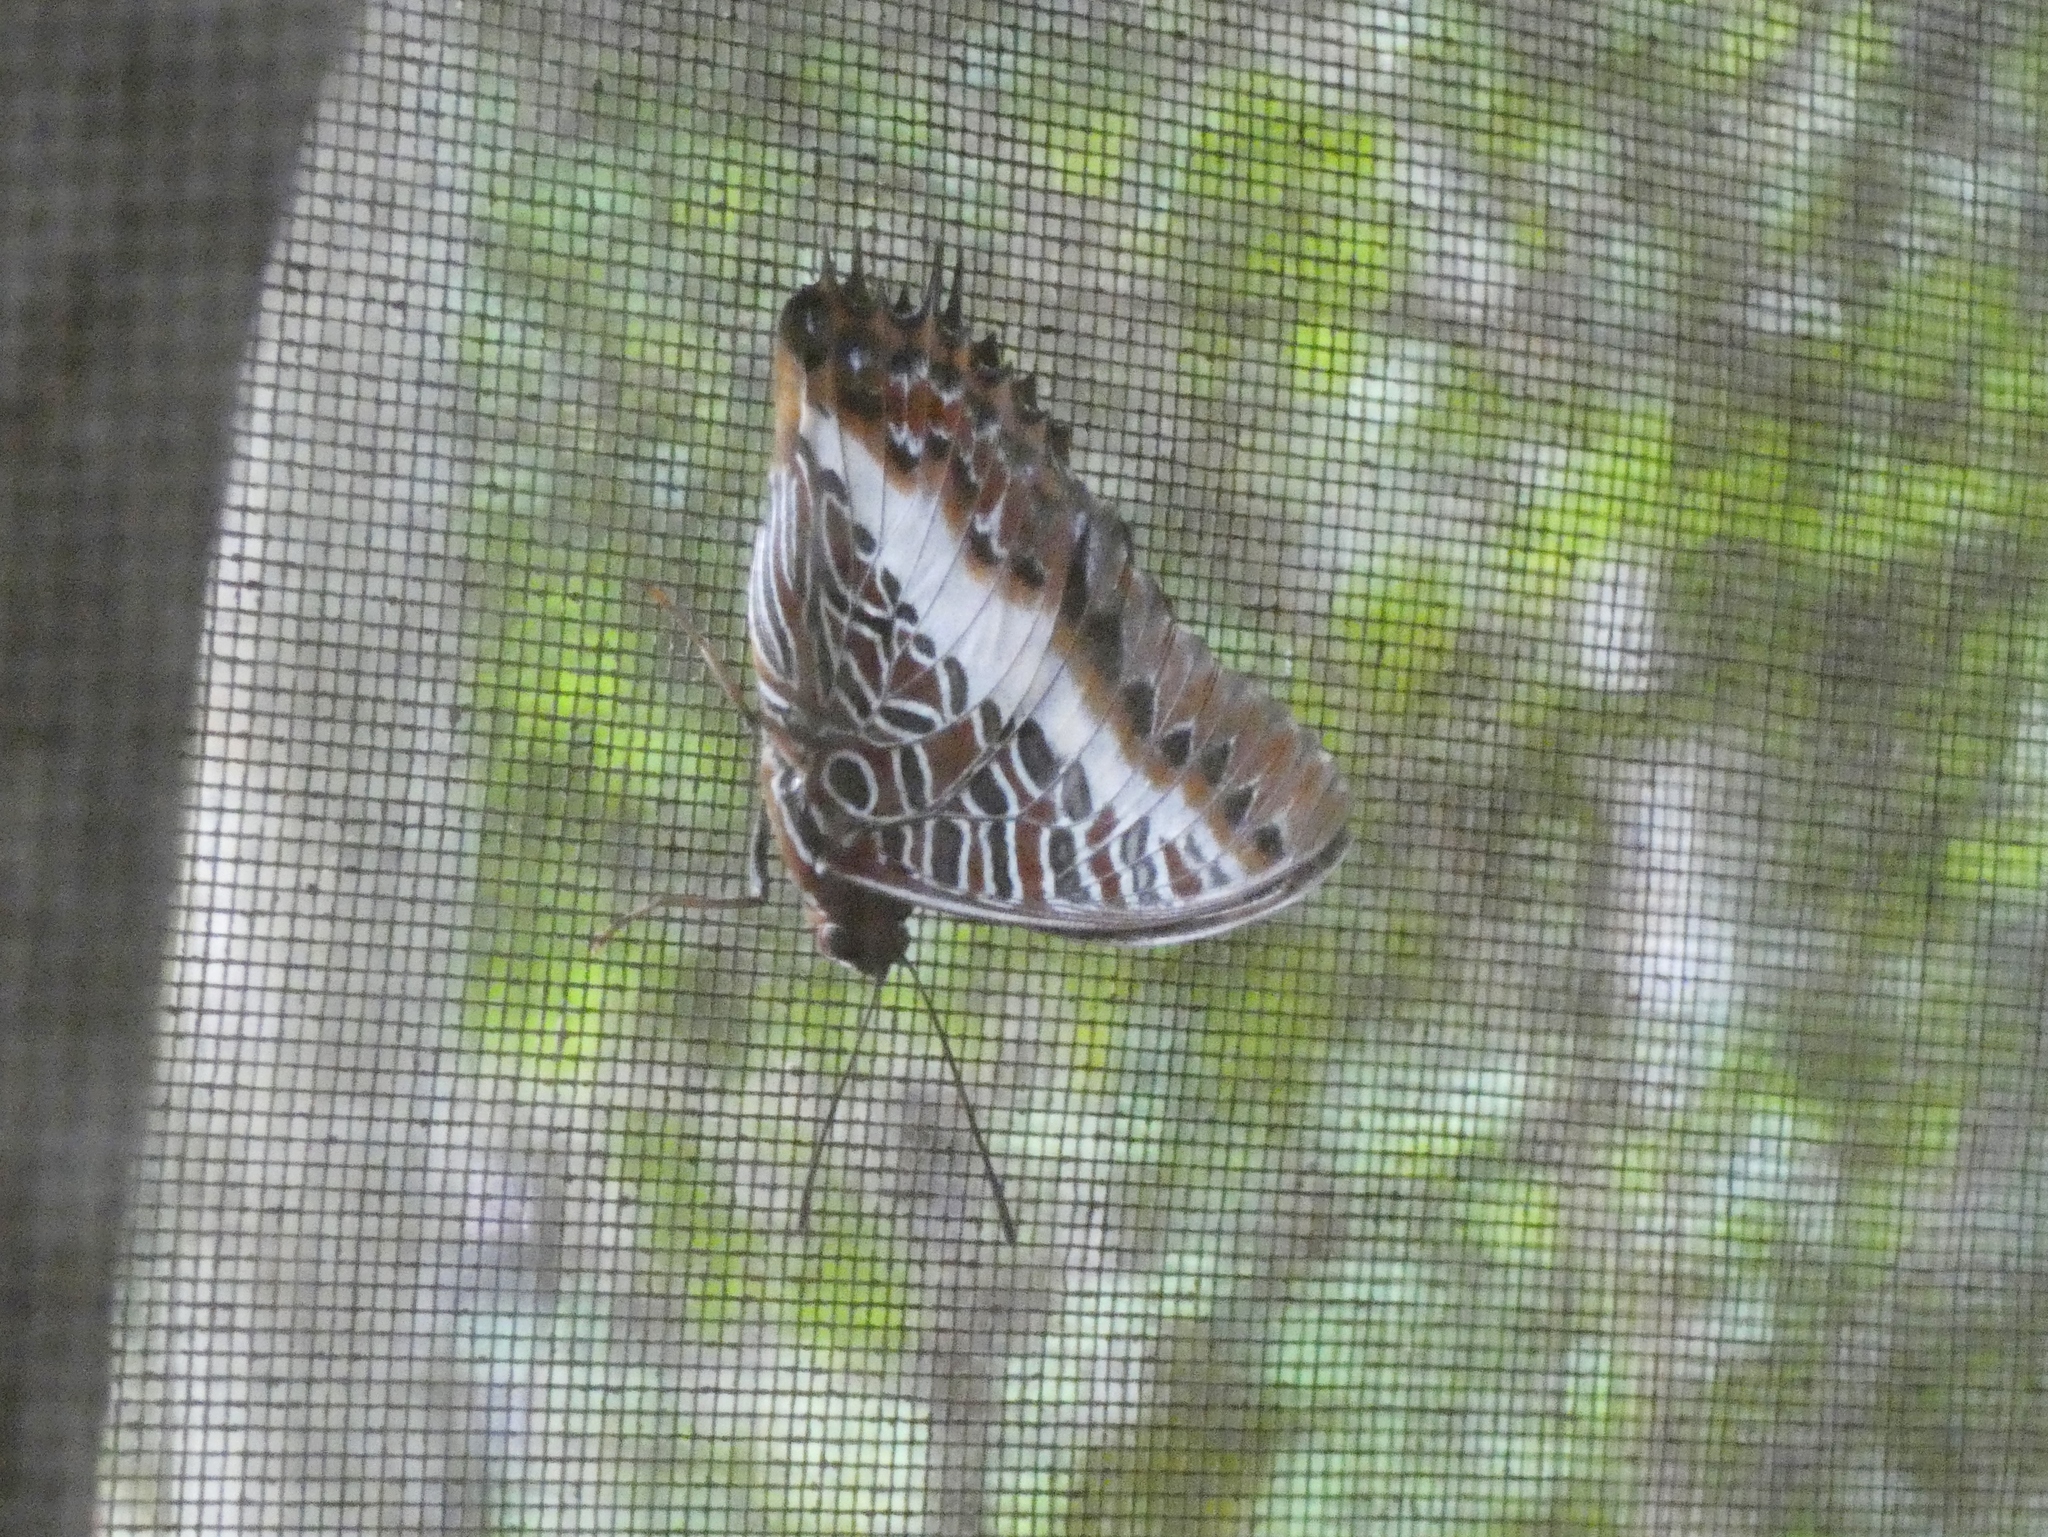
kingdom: Animalia
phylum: Arthropoda
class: Insecta
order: Lepidoptera
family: Nymphalidae
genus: Charaxes
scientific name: Charaxes brutus
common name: White-barred charaxes
